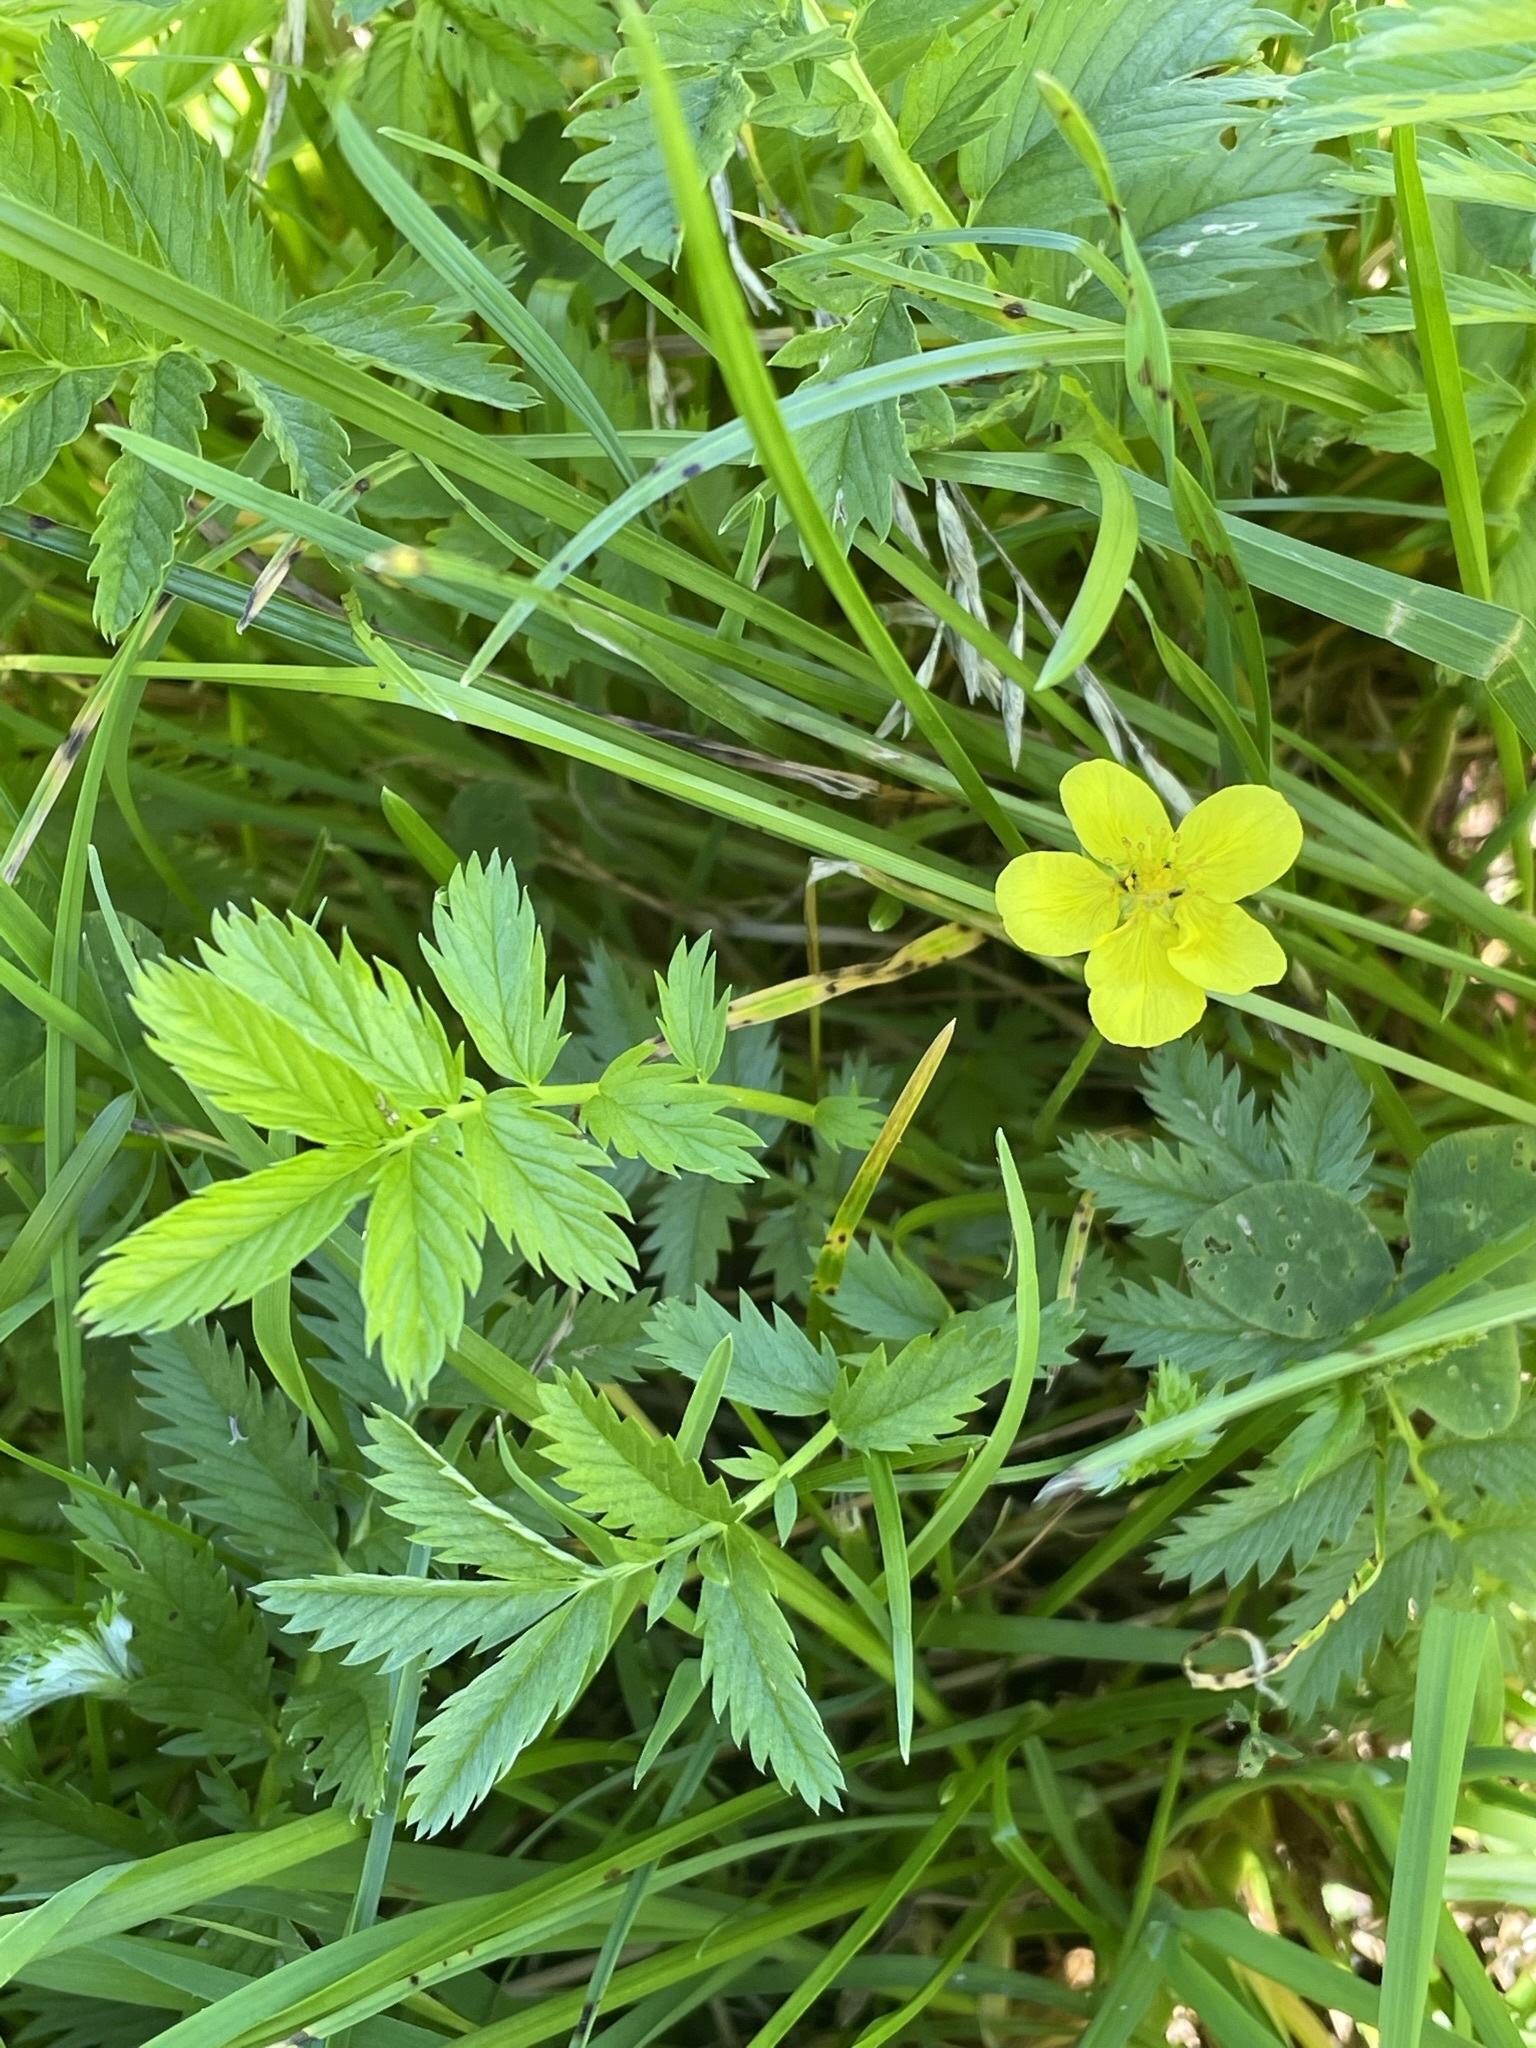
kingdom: Plantae
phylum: Tracheophyta
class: Magnoliopsida
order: Rosales
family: Rosaceae
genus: Argentina
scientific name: Argentina anserina
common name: Common silverweed
